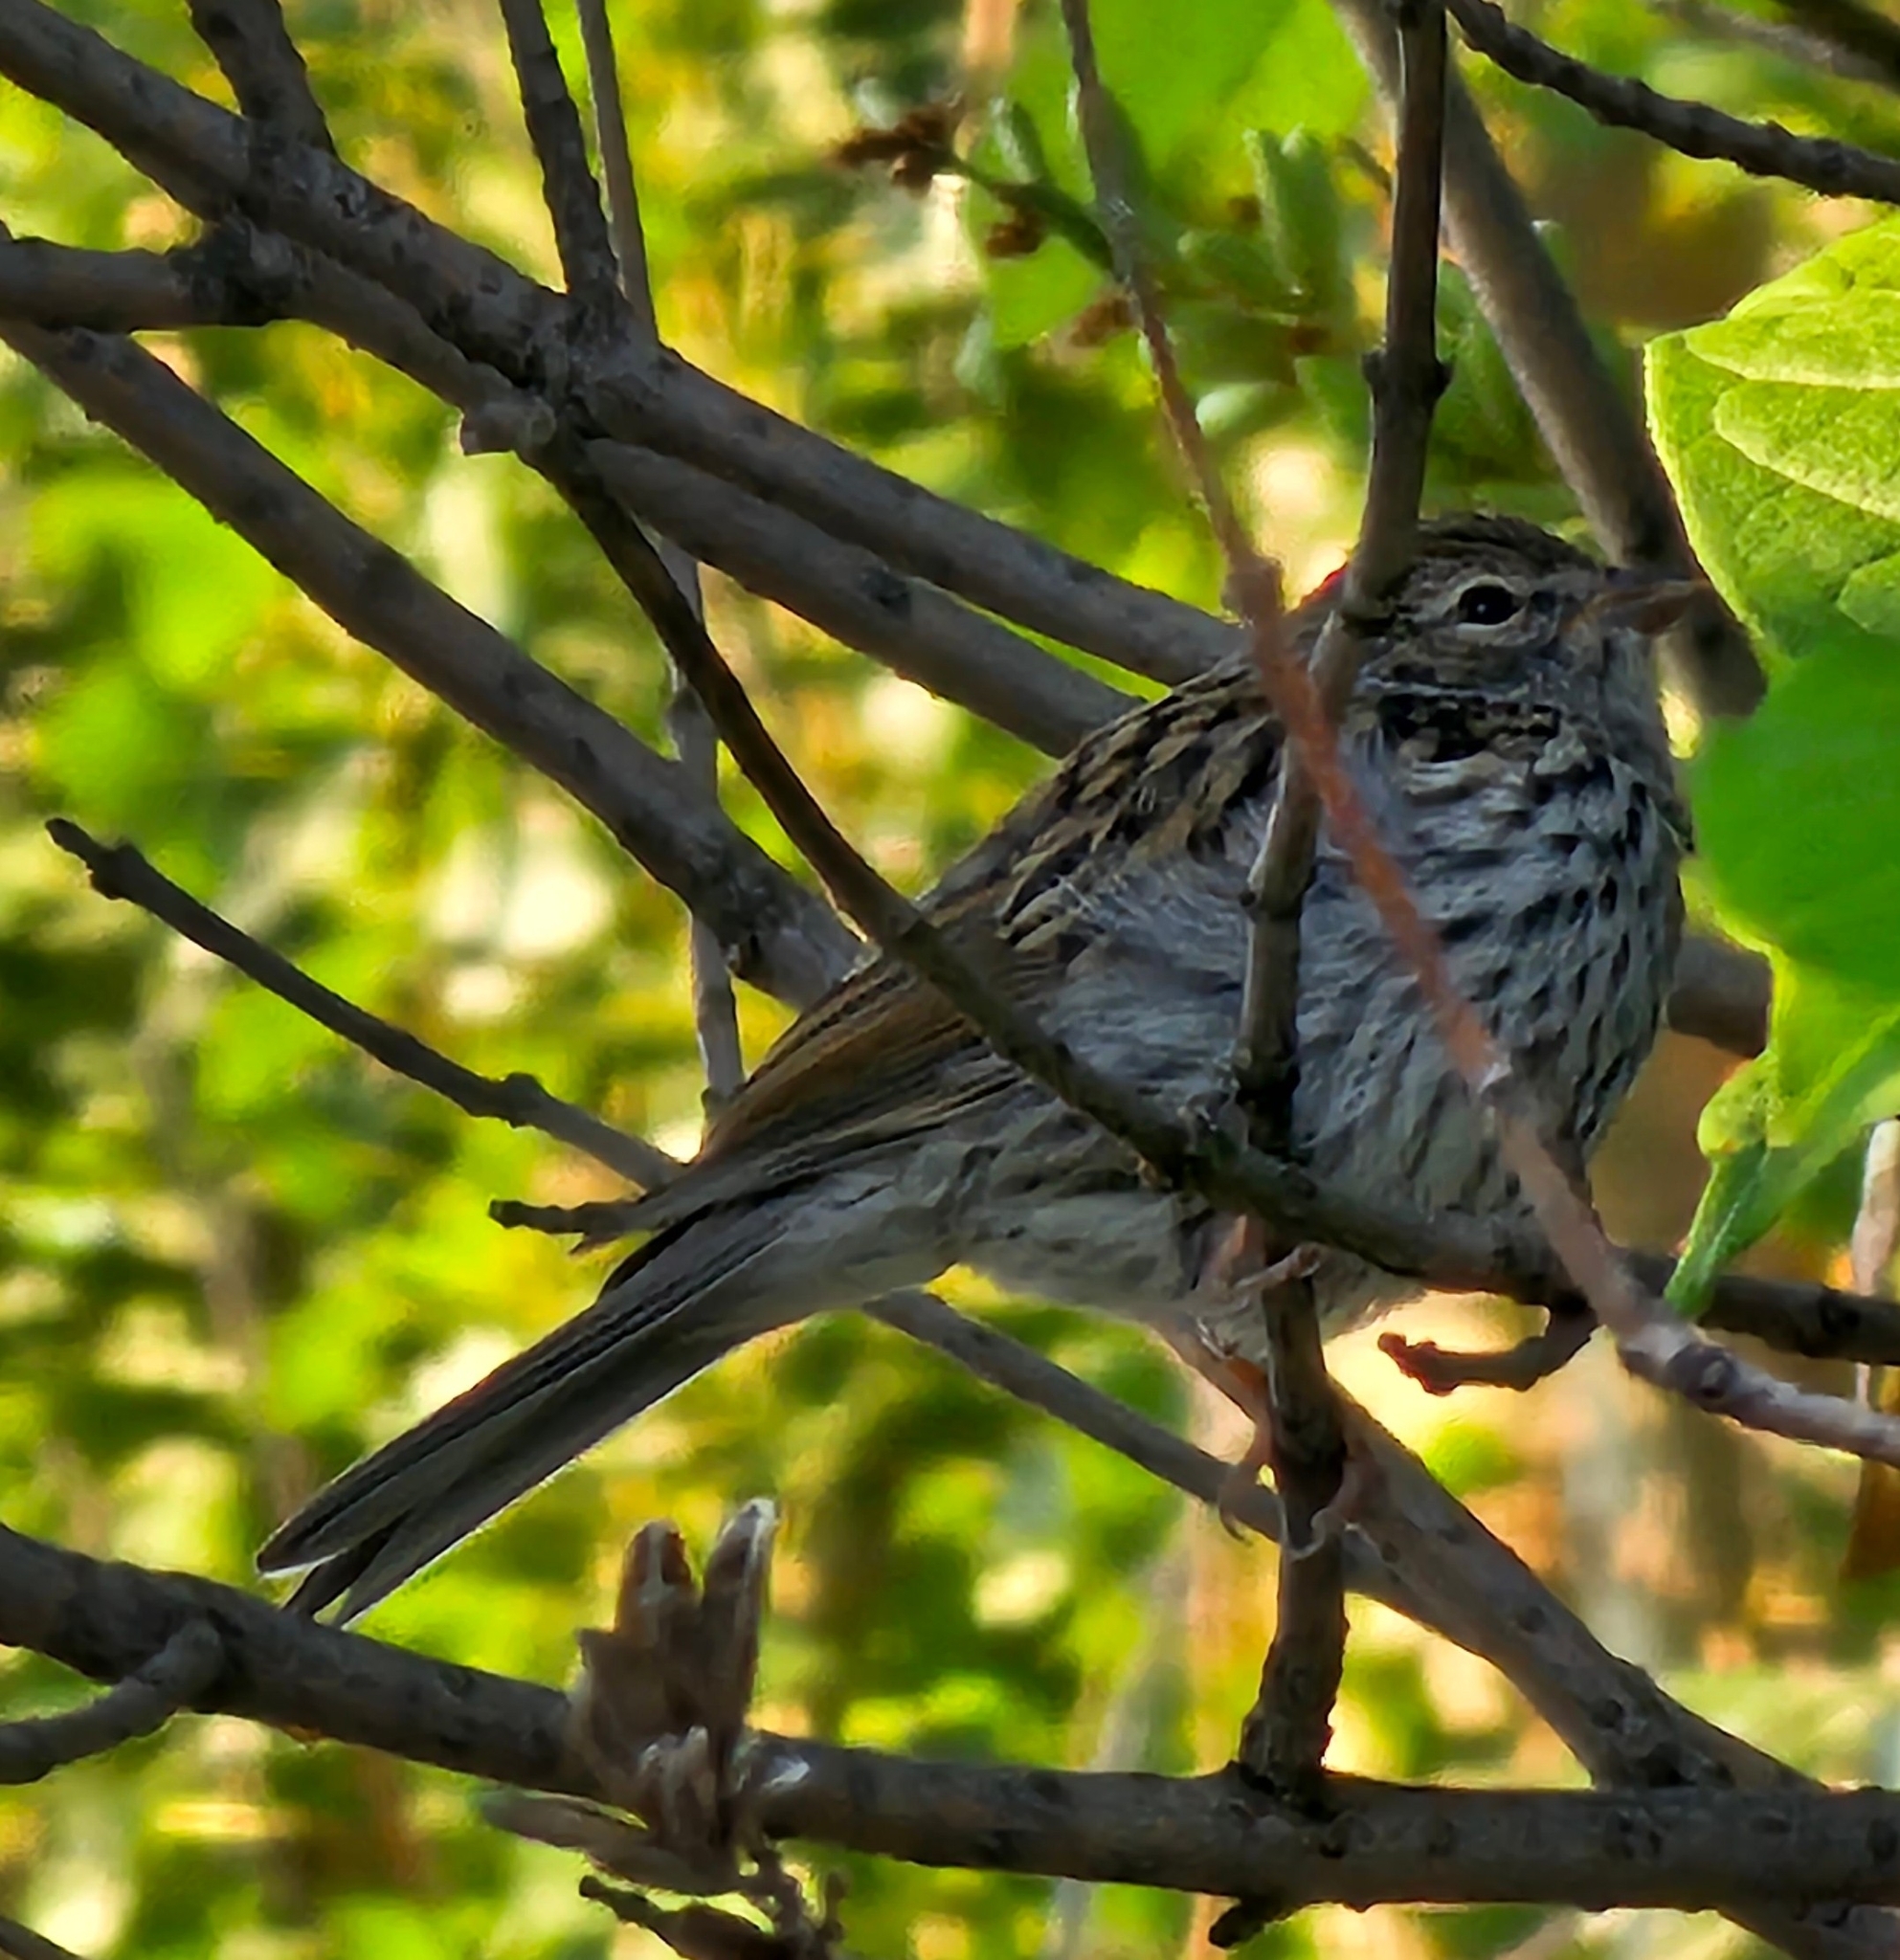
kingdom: Animalia
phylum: Chordata
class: Aves
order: Passeriformes
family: Passerellidae
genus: Spizella
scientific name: Spizella passerina
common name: Chipping sparrow
